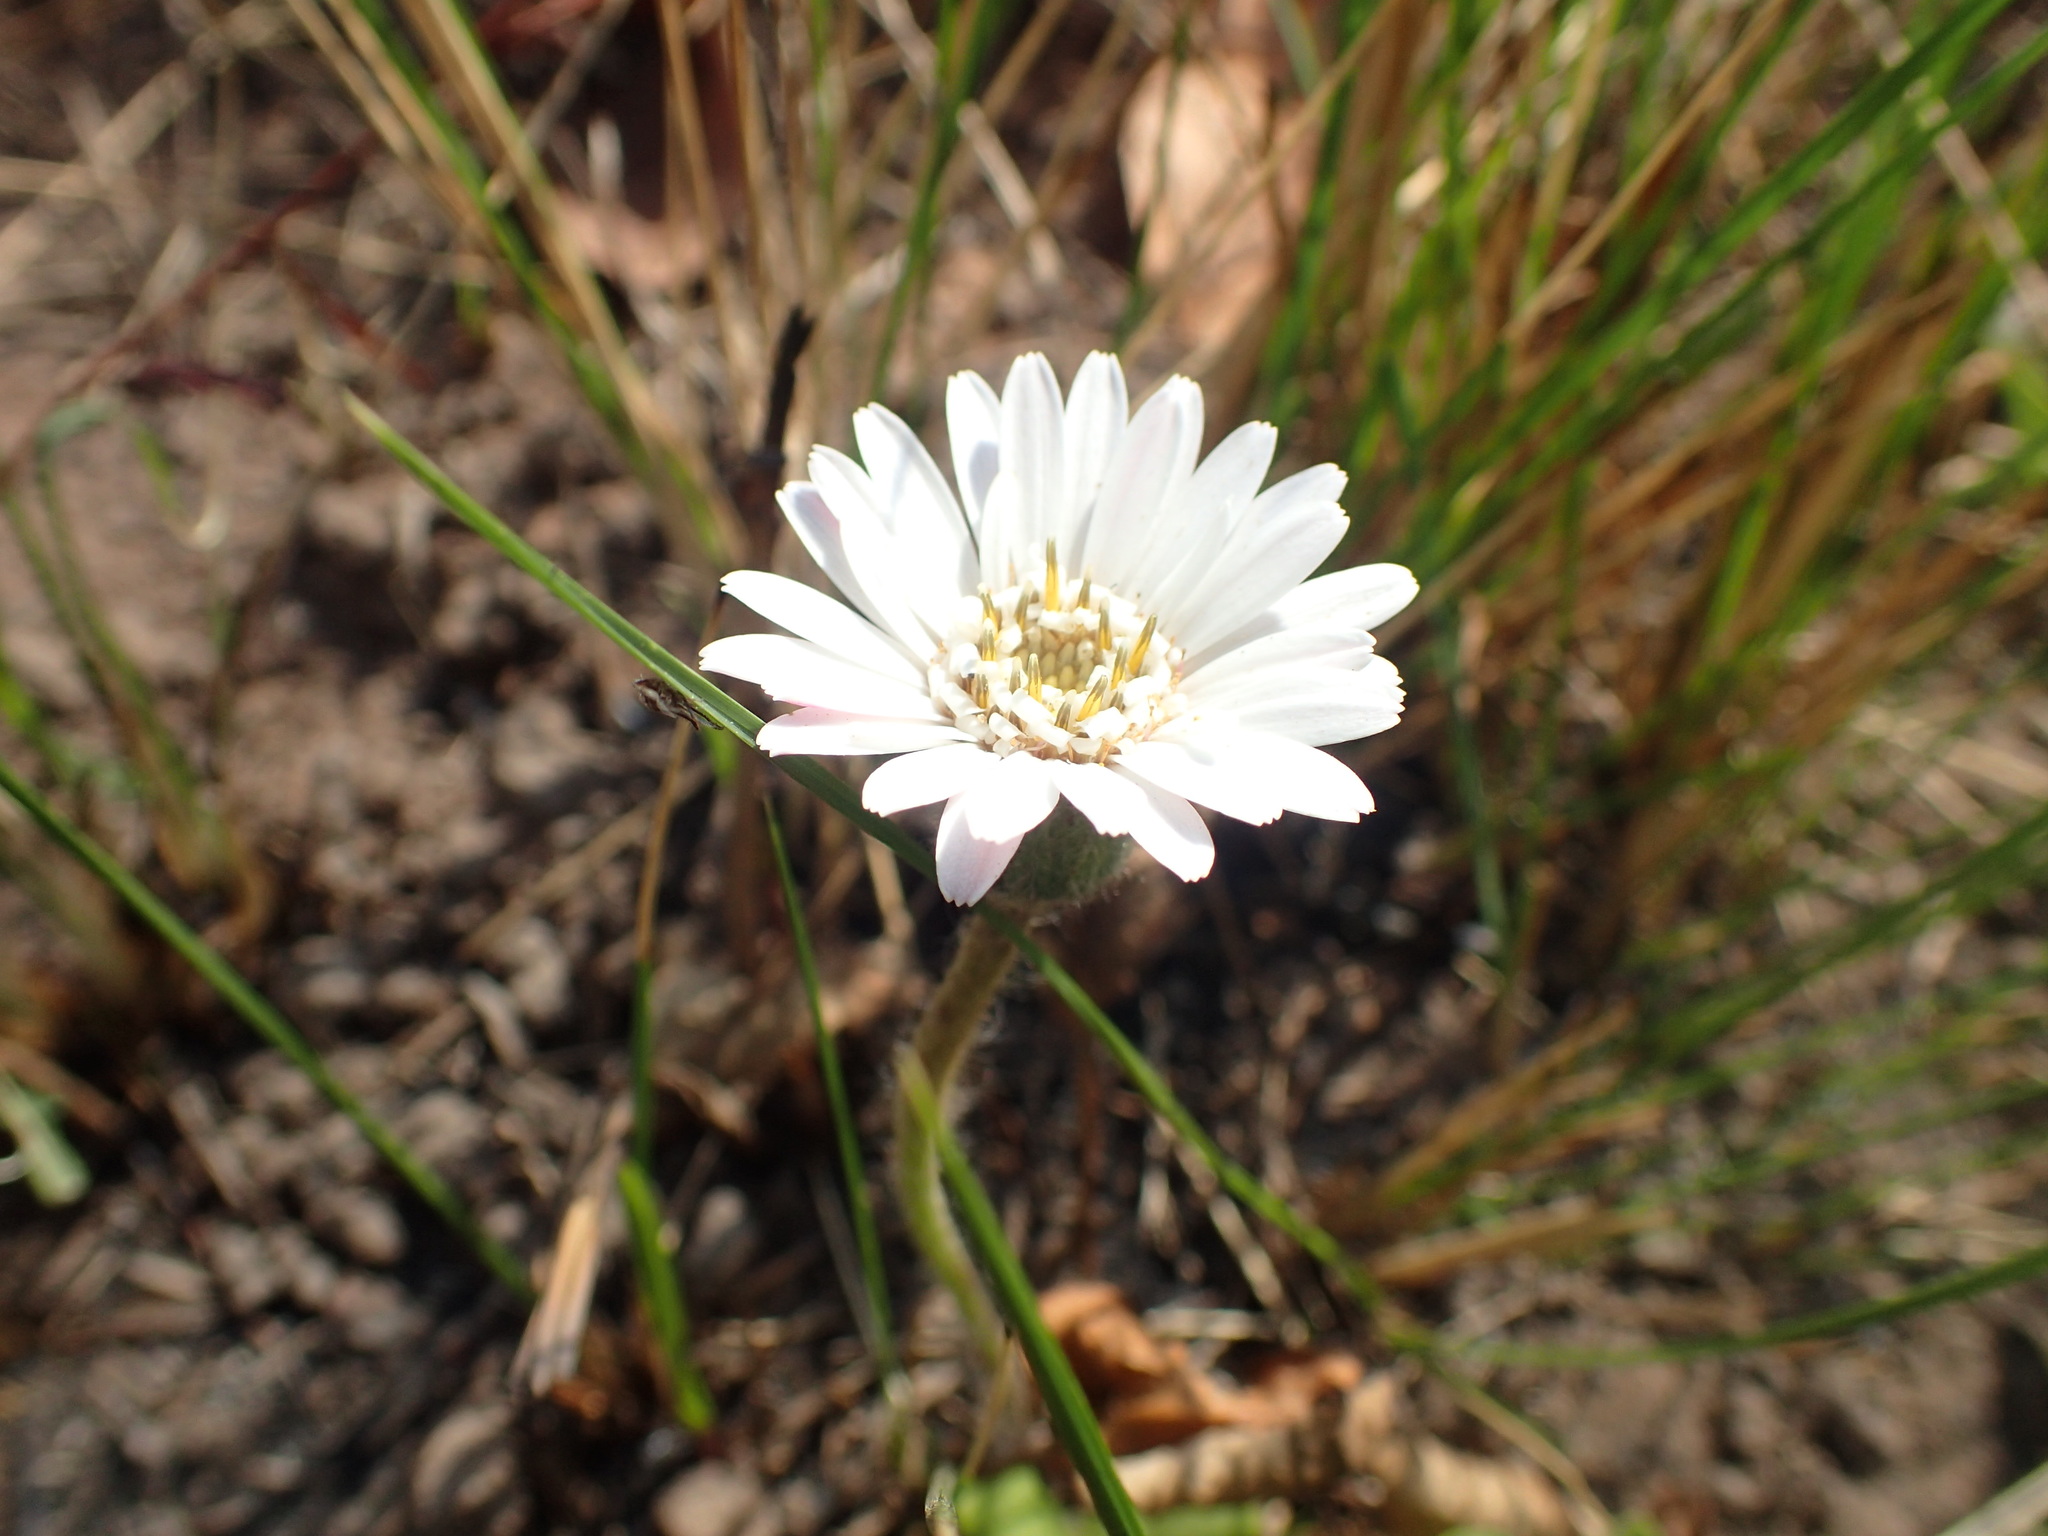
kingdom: Plantae
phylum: Tracheophyta
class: Magnoliopsida
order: Asterales
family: Asteraceae
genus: Gerbera
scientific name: Gerbera ambigua
